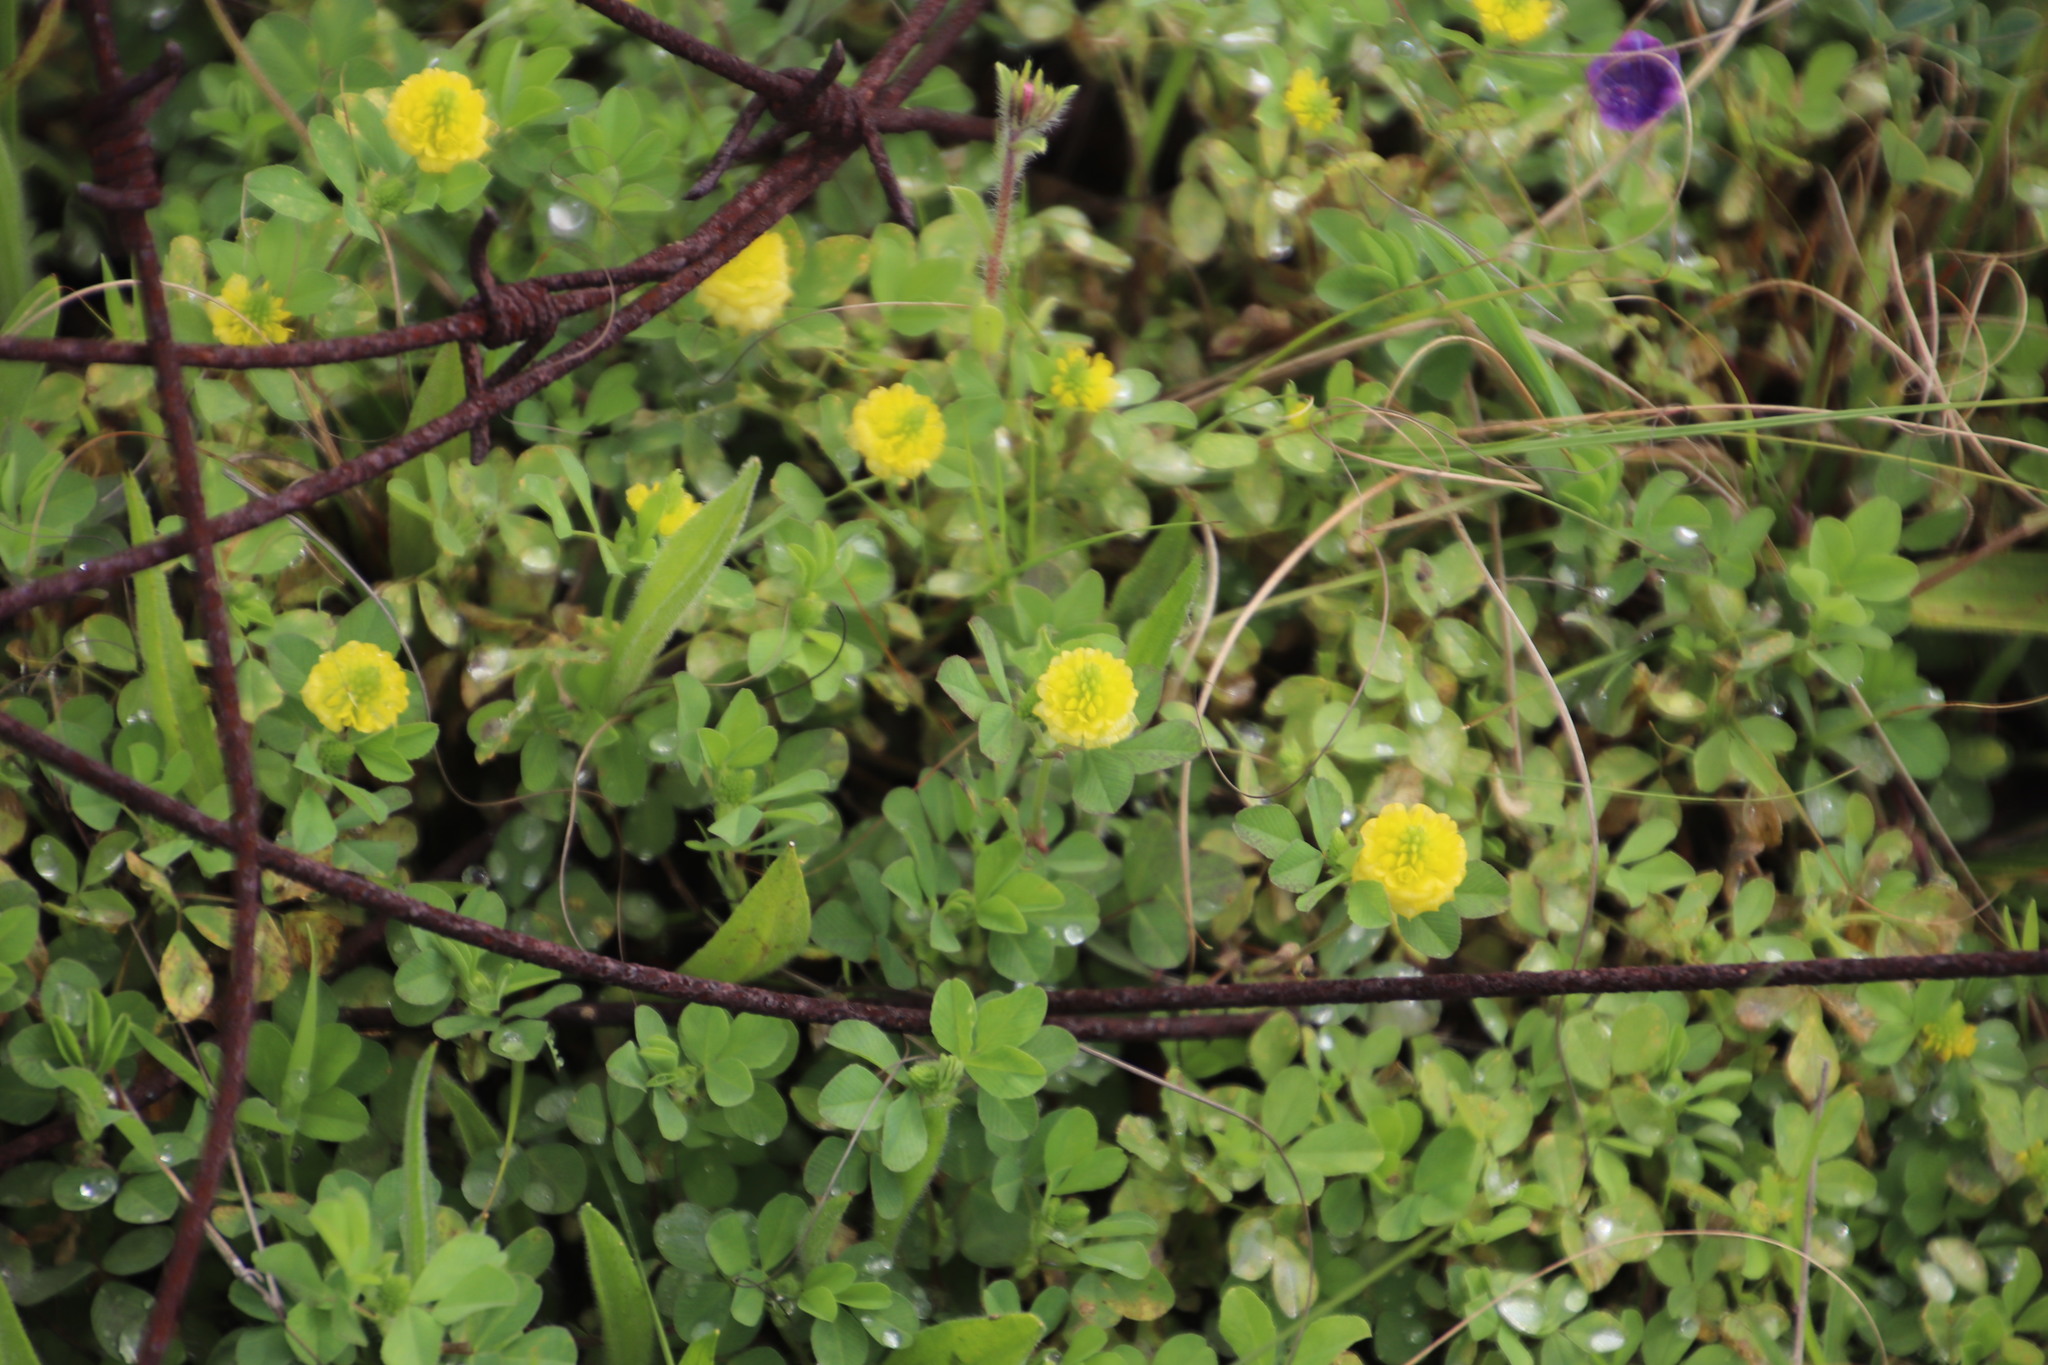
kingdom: Plantae
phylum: Tracheophyta
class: Magnoliopsida
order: Fabales
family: Fabaceae
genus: Medicago
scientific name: Medicago lupulina
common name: Black medick
